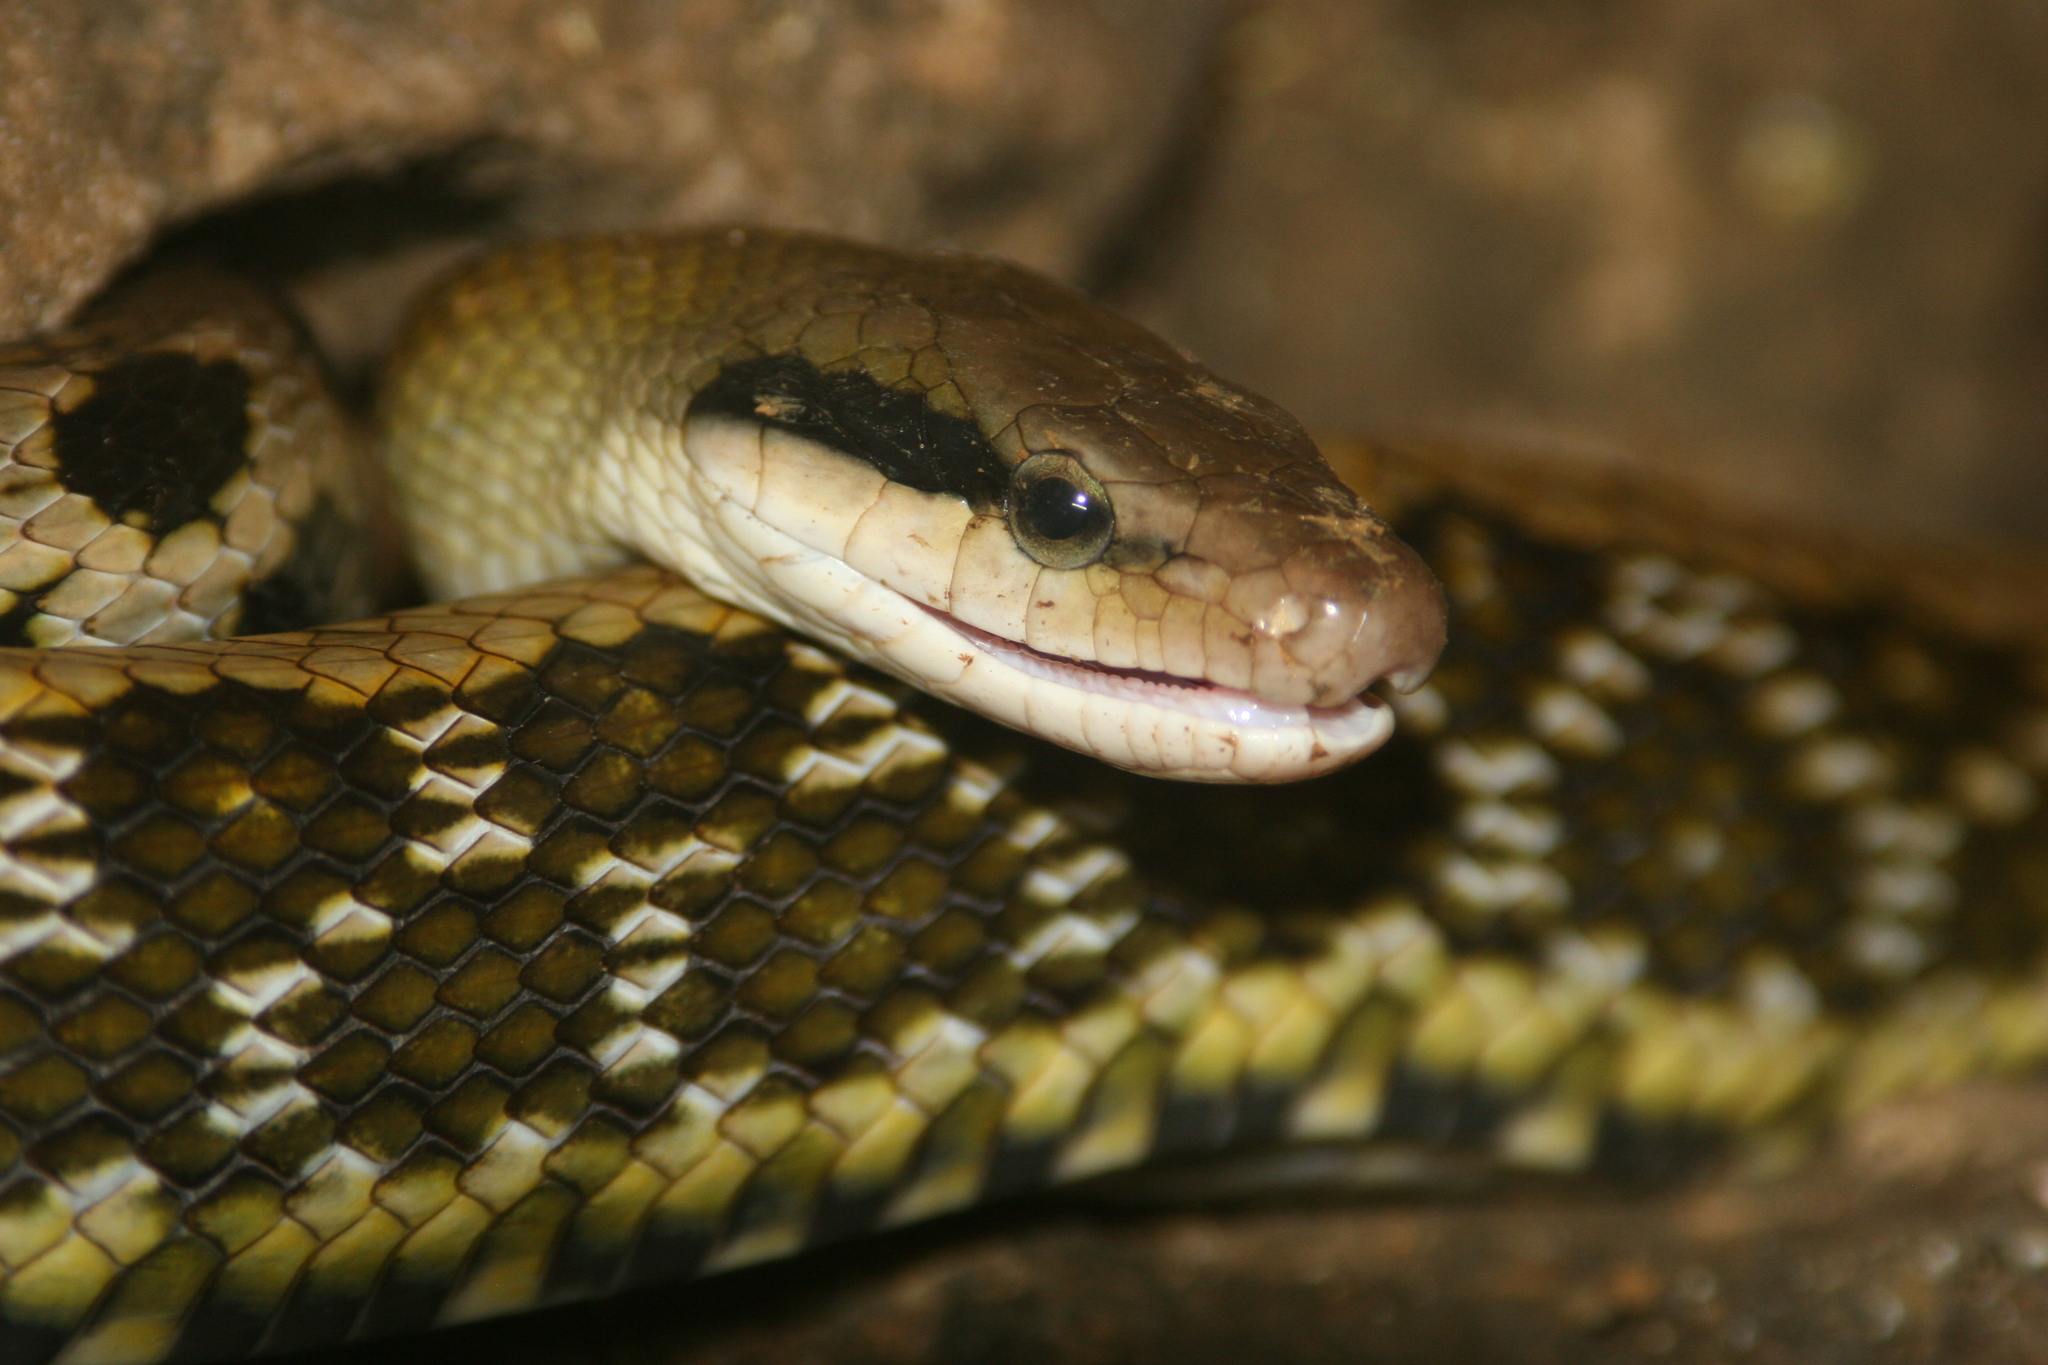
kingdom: Animalia
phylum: Chordata
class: Squamata
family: Colubridae
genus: Elaphe
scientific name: Elaphe taeniura
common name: Beauty snake
